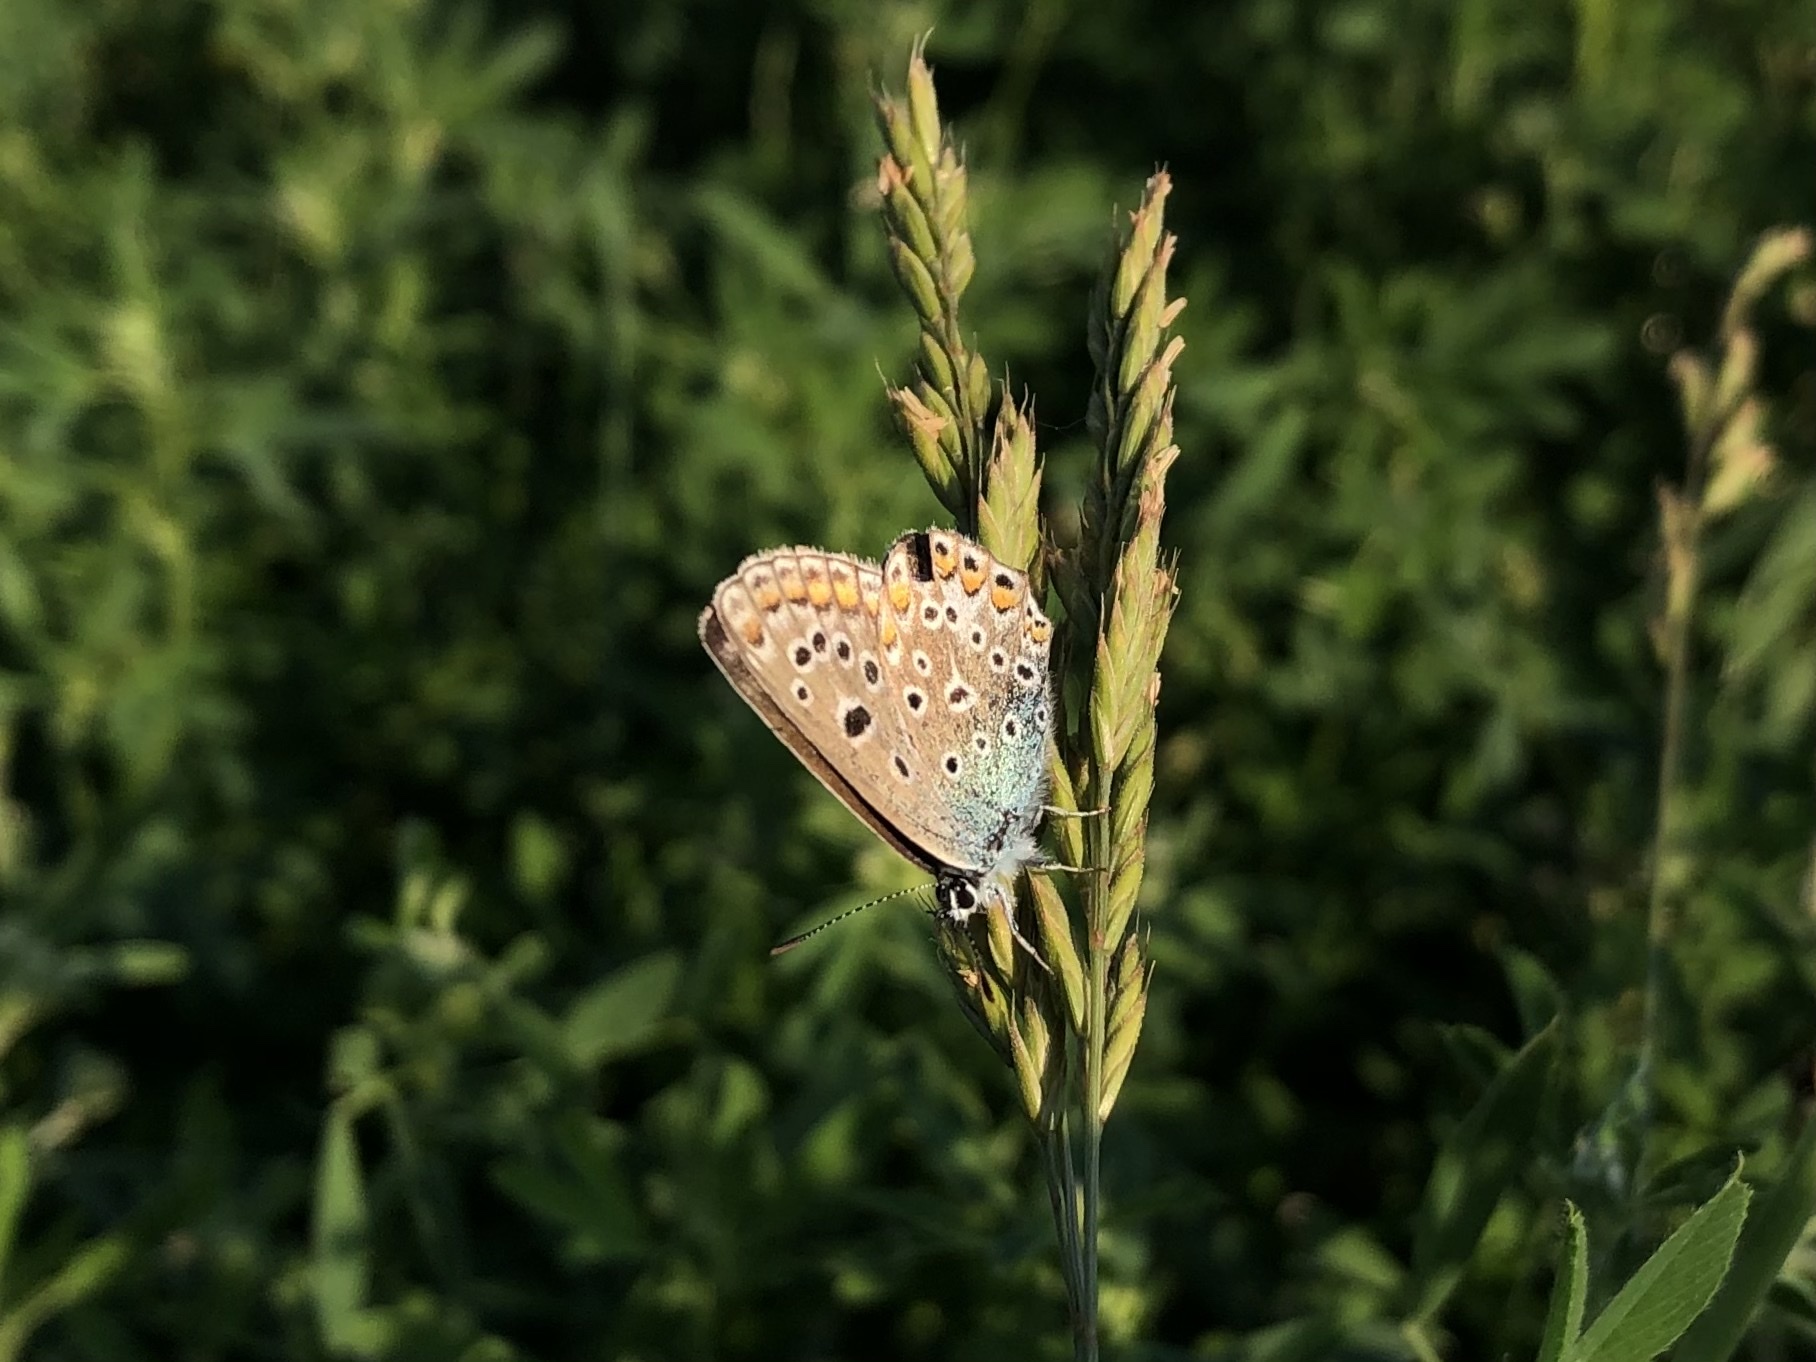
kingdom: Animalia
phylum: Arthropoda
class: Insecta
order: Lepidoptera
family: Lycaenidae
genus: Polyommatus
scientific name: Polyommatus icarus
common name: Common blue
